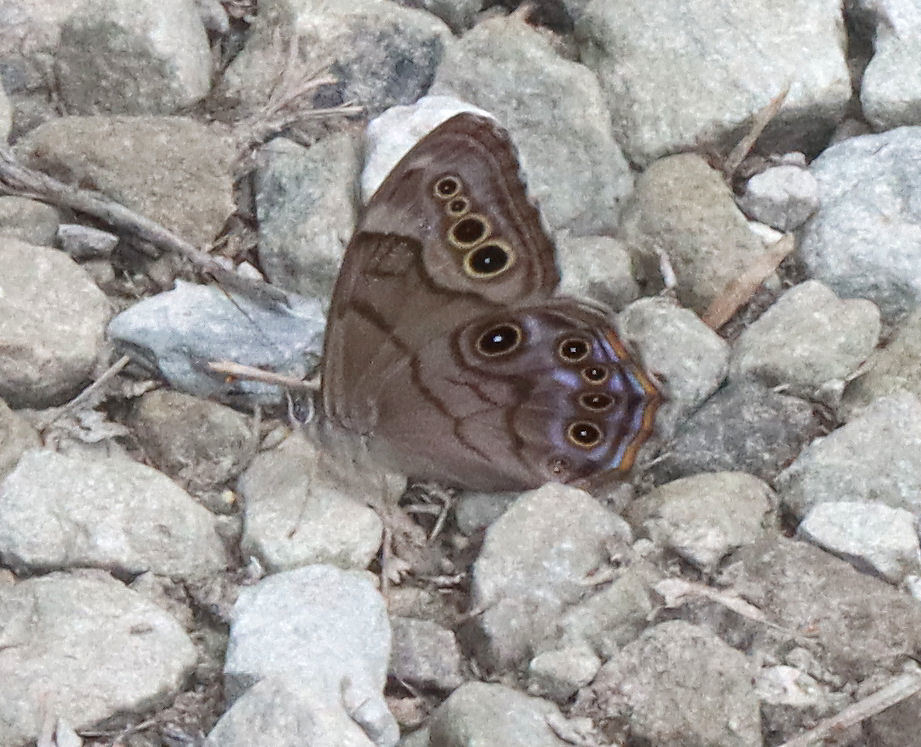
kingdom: Animalia
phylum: Arthropoda
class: Insecta
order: Lepidoptera
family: Nymphalidae
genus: Lethe
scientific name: Lethe anthedon
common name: Northern pearly-eye
